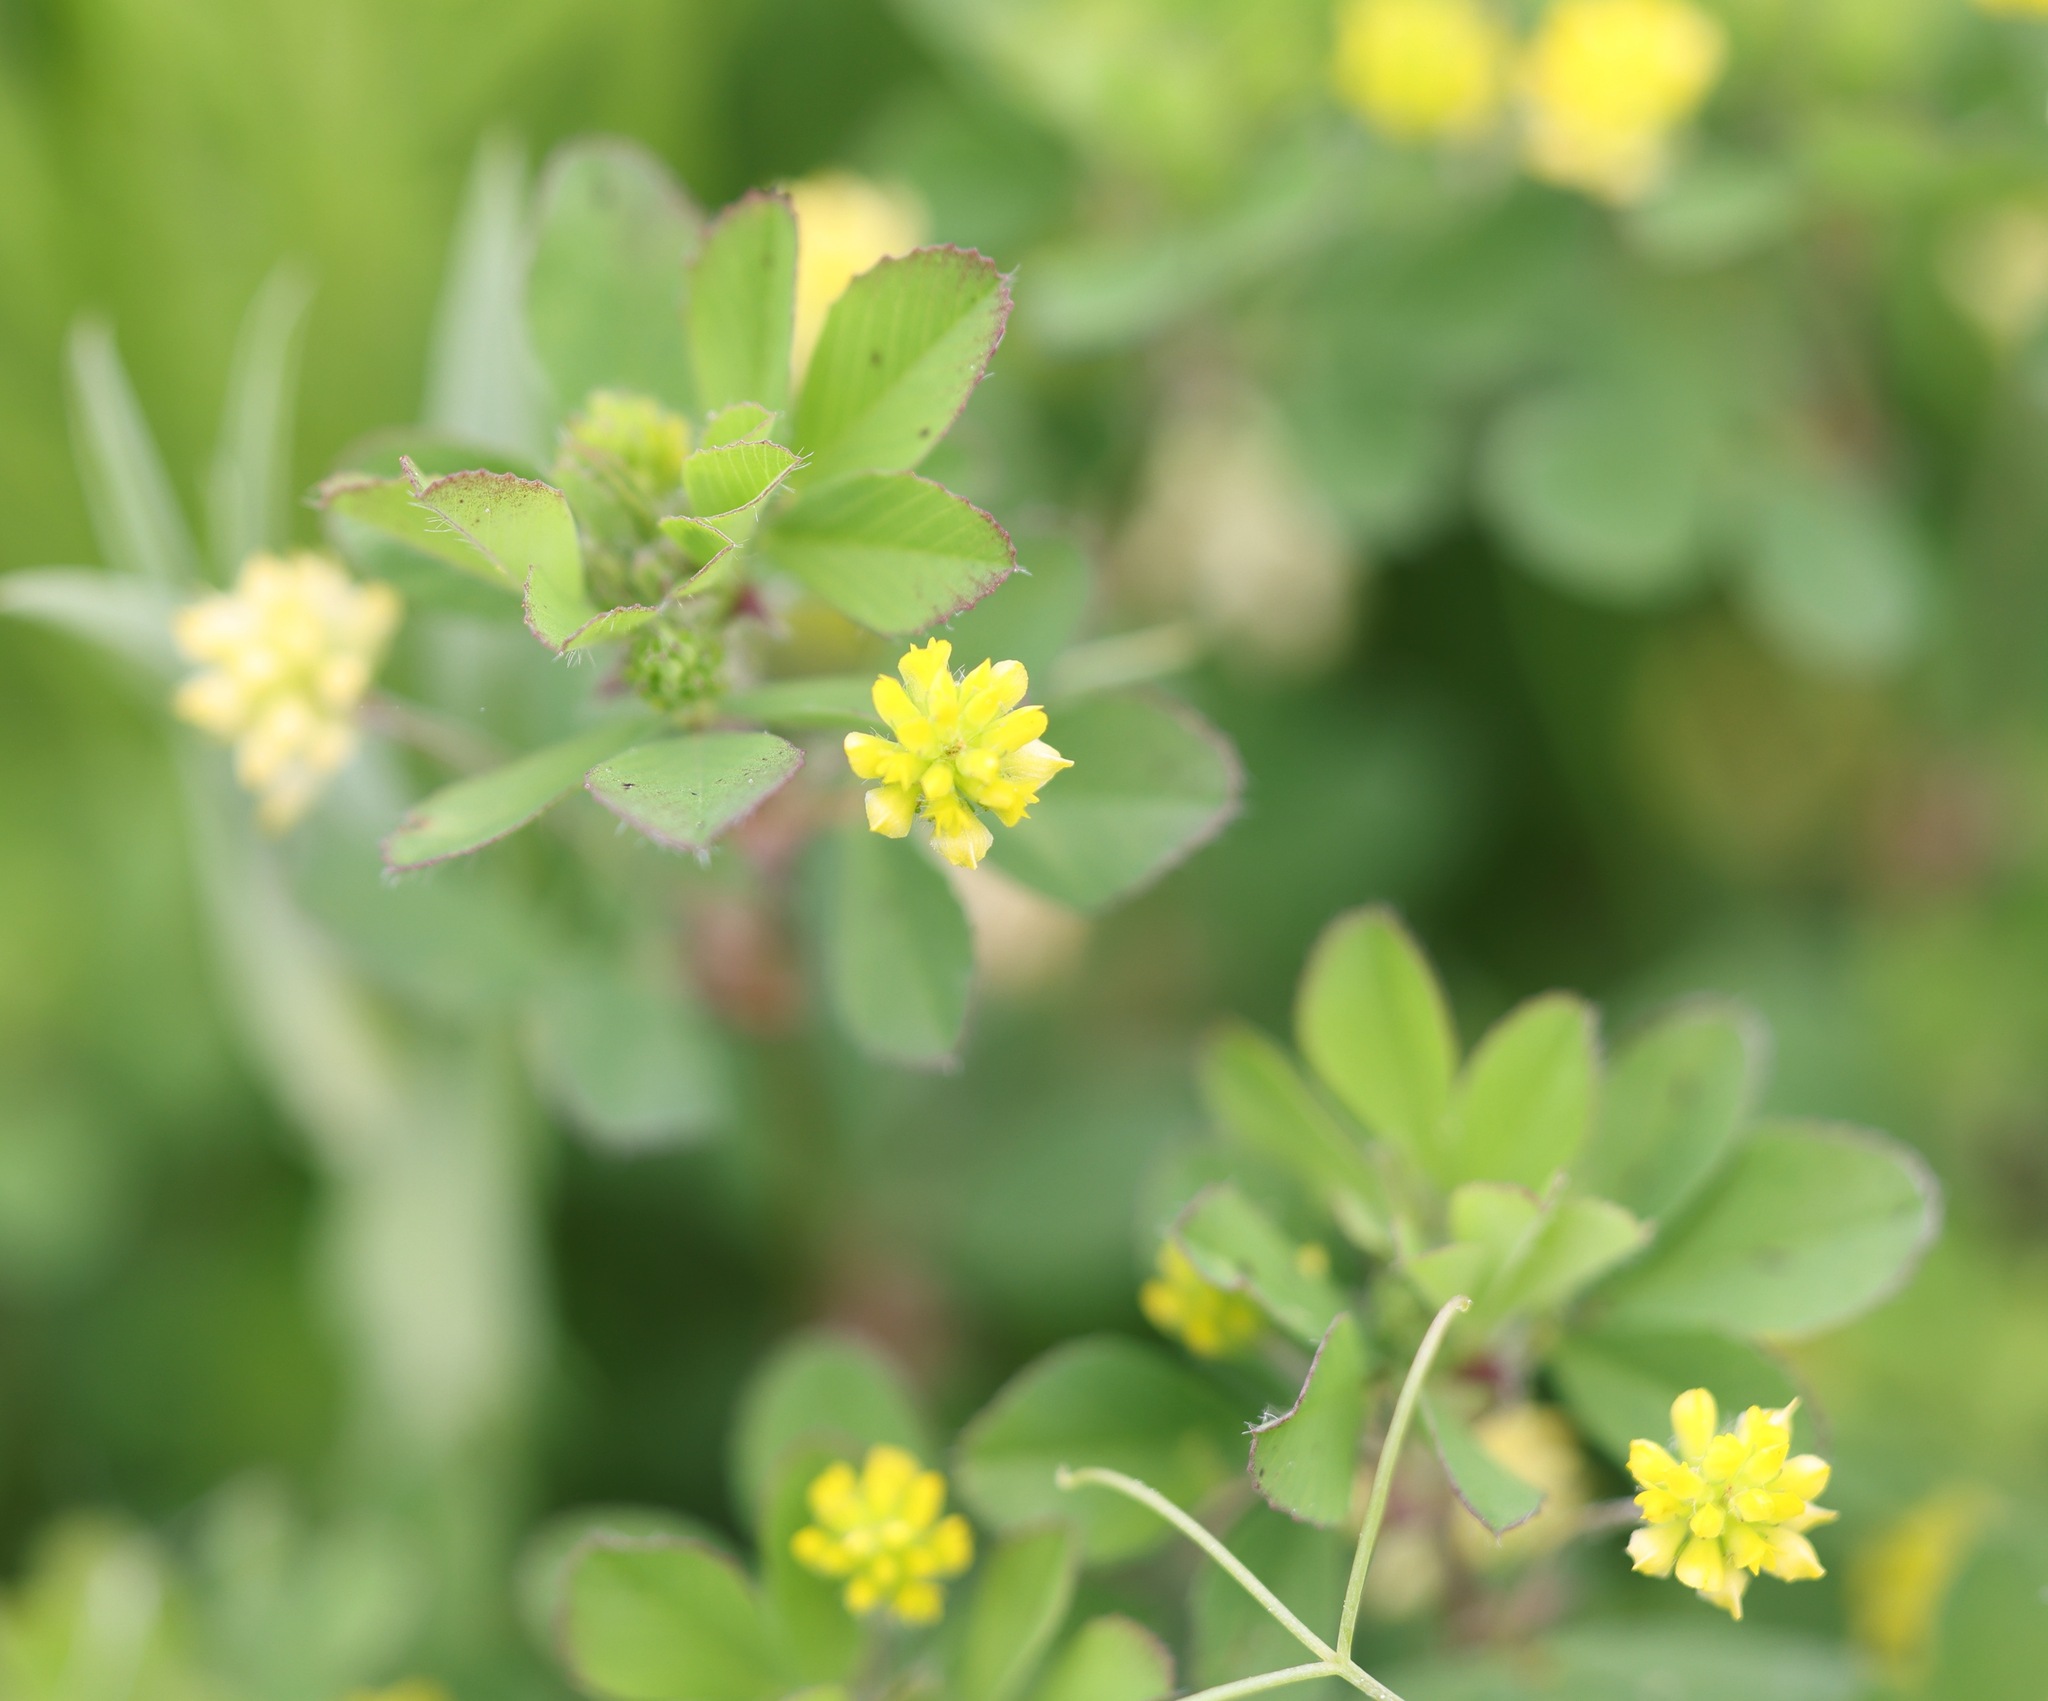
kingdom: Plantae
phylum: Tracheophyta
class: Magnoliopsida
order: Fabales
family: Fabaceae
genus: Trifolium
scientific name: Trifolium campestre
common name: Field clover
